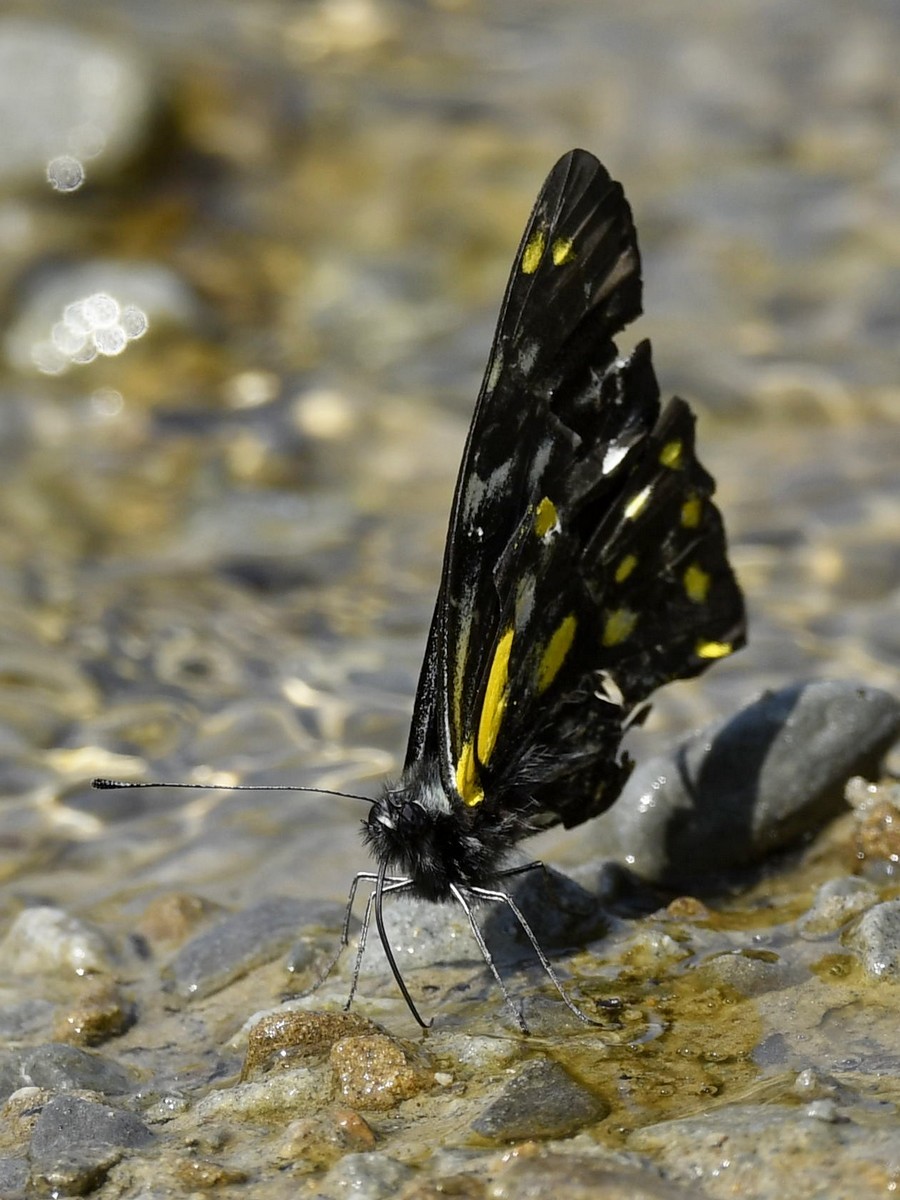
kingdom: Animalia
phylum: Arthropoda
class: Insecta
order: Lepidoptera
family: Pieridae
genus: Delias
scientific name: Delias belladonna
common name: Hill jezebel
